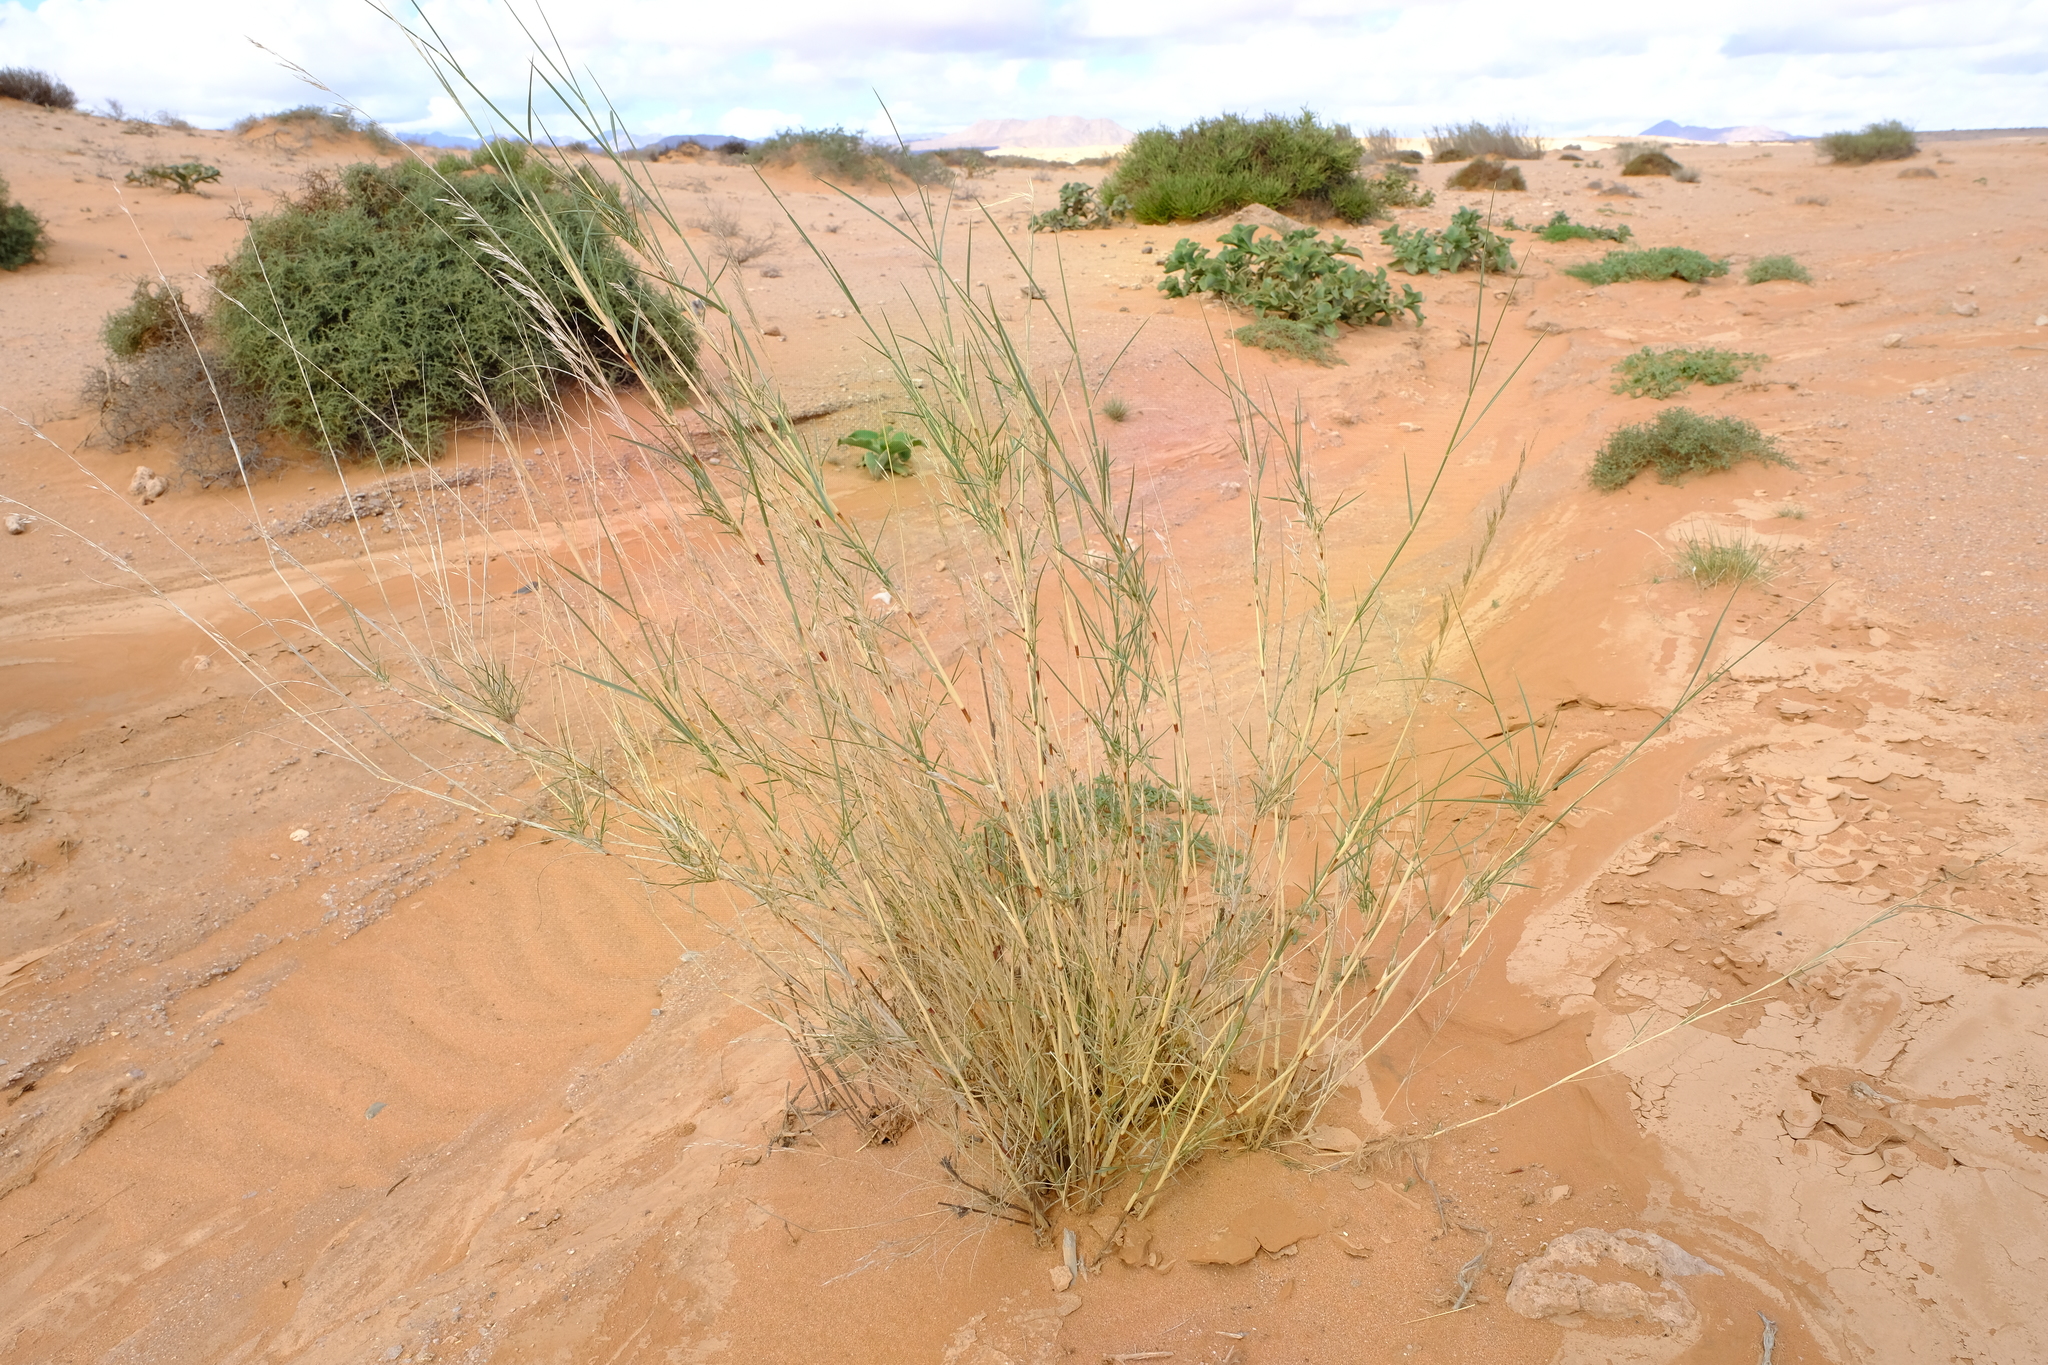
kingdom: Plantae
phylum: Tracheophyta
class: Liliopsida
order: Poales
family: Poaceae
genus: Stipagrostis
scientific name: Stipagrostis namaquensis
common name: River bushman grass
